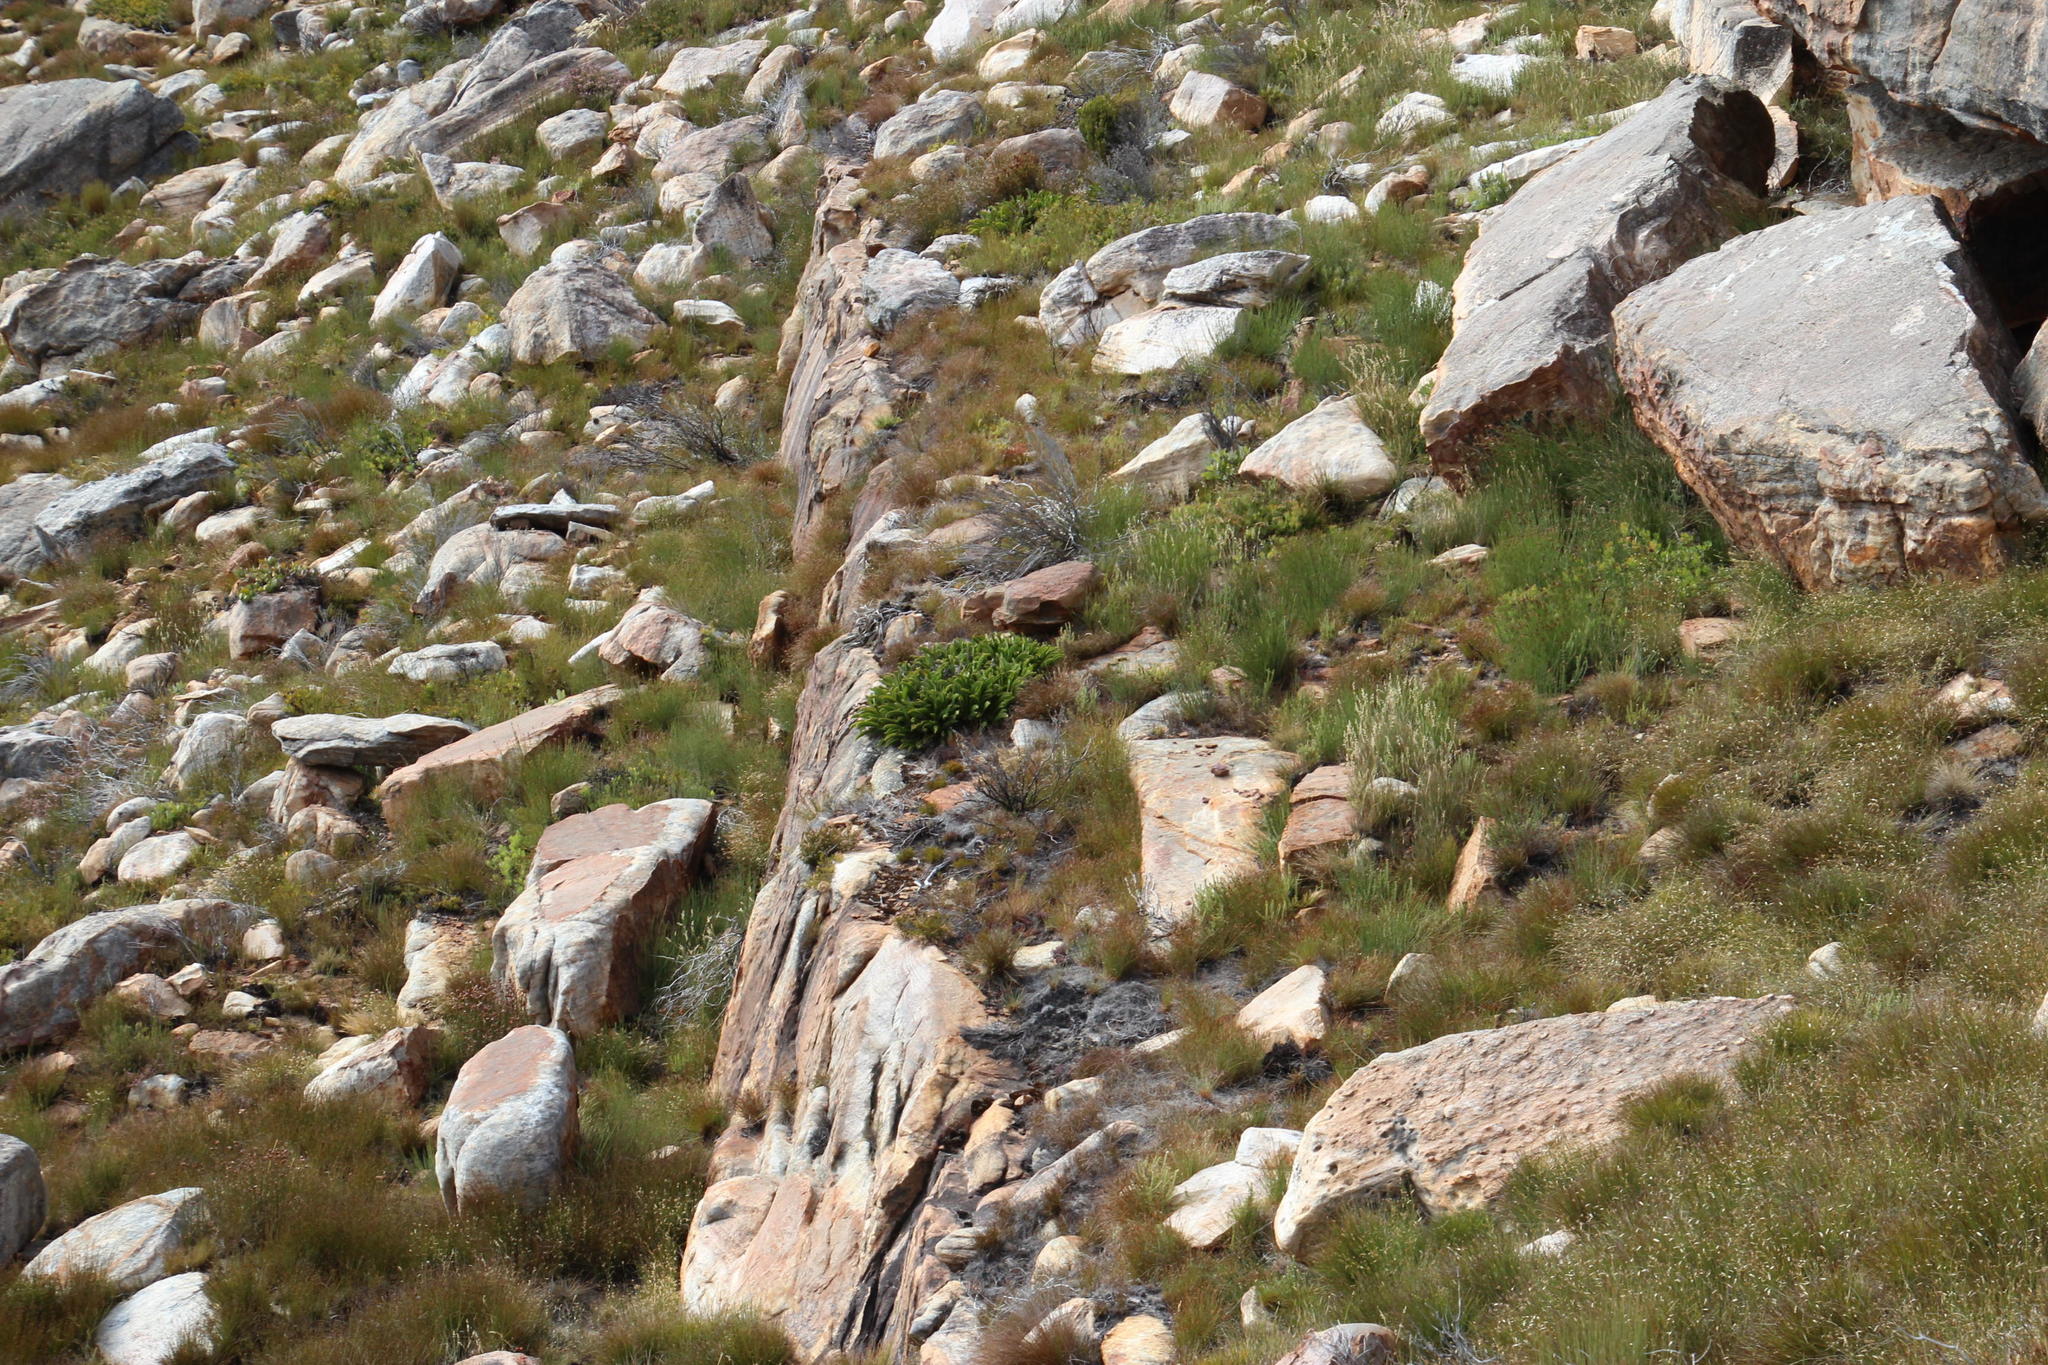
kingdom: Plantae
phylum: Tracheophyta
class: Magnoliopsida
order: Proteales
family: Proteaceae
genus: Protea
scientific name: Protea cryophila
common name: Snow protea
